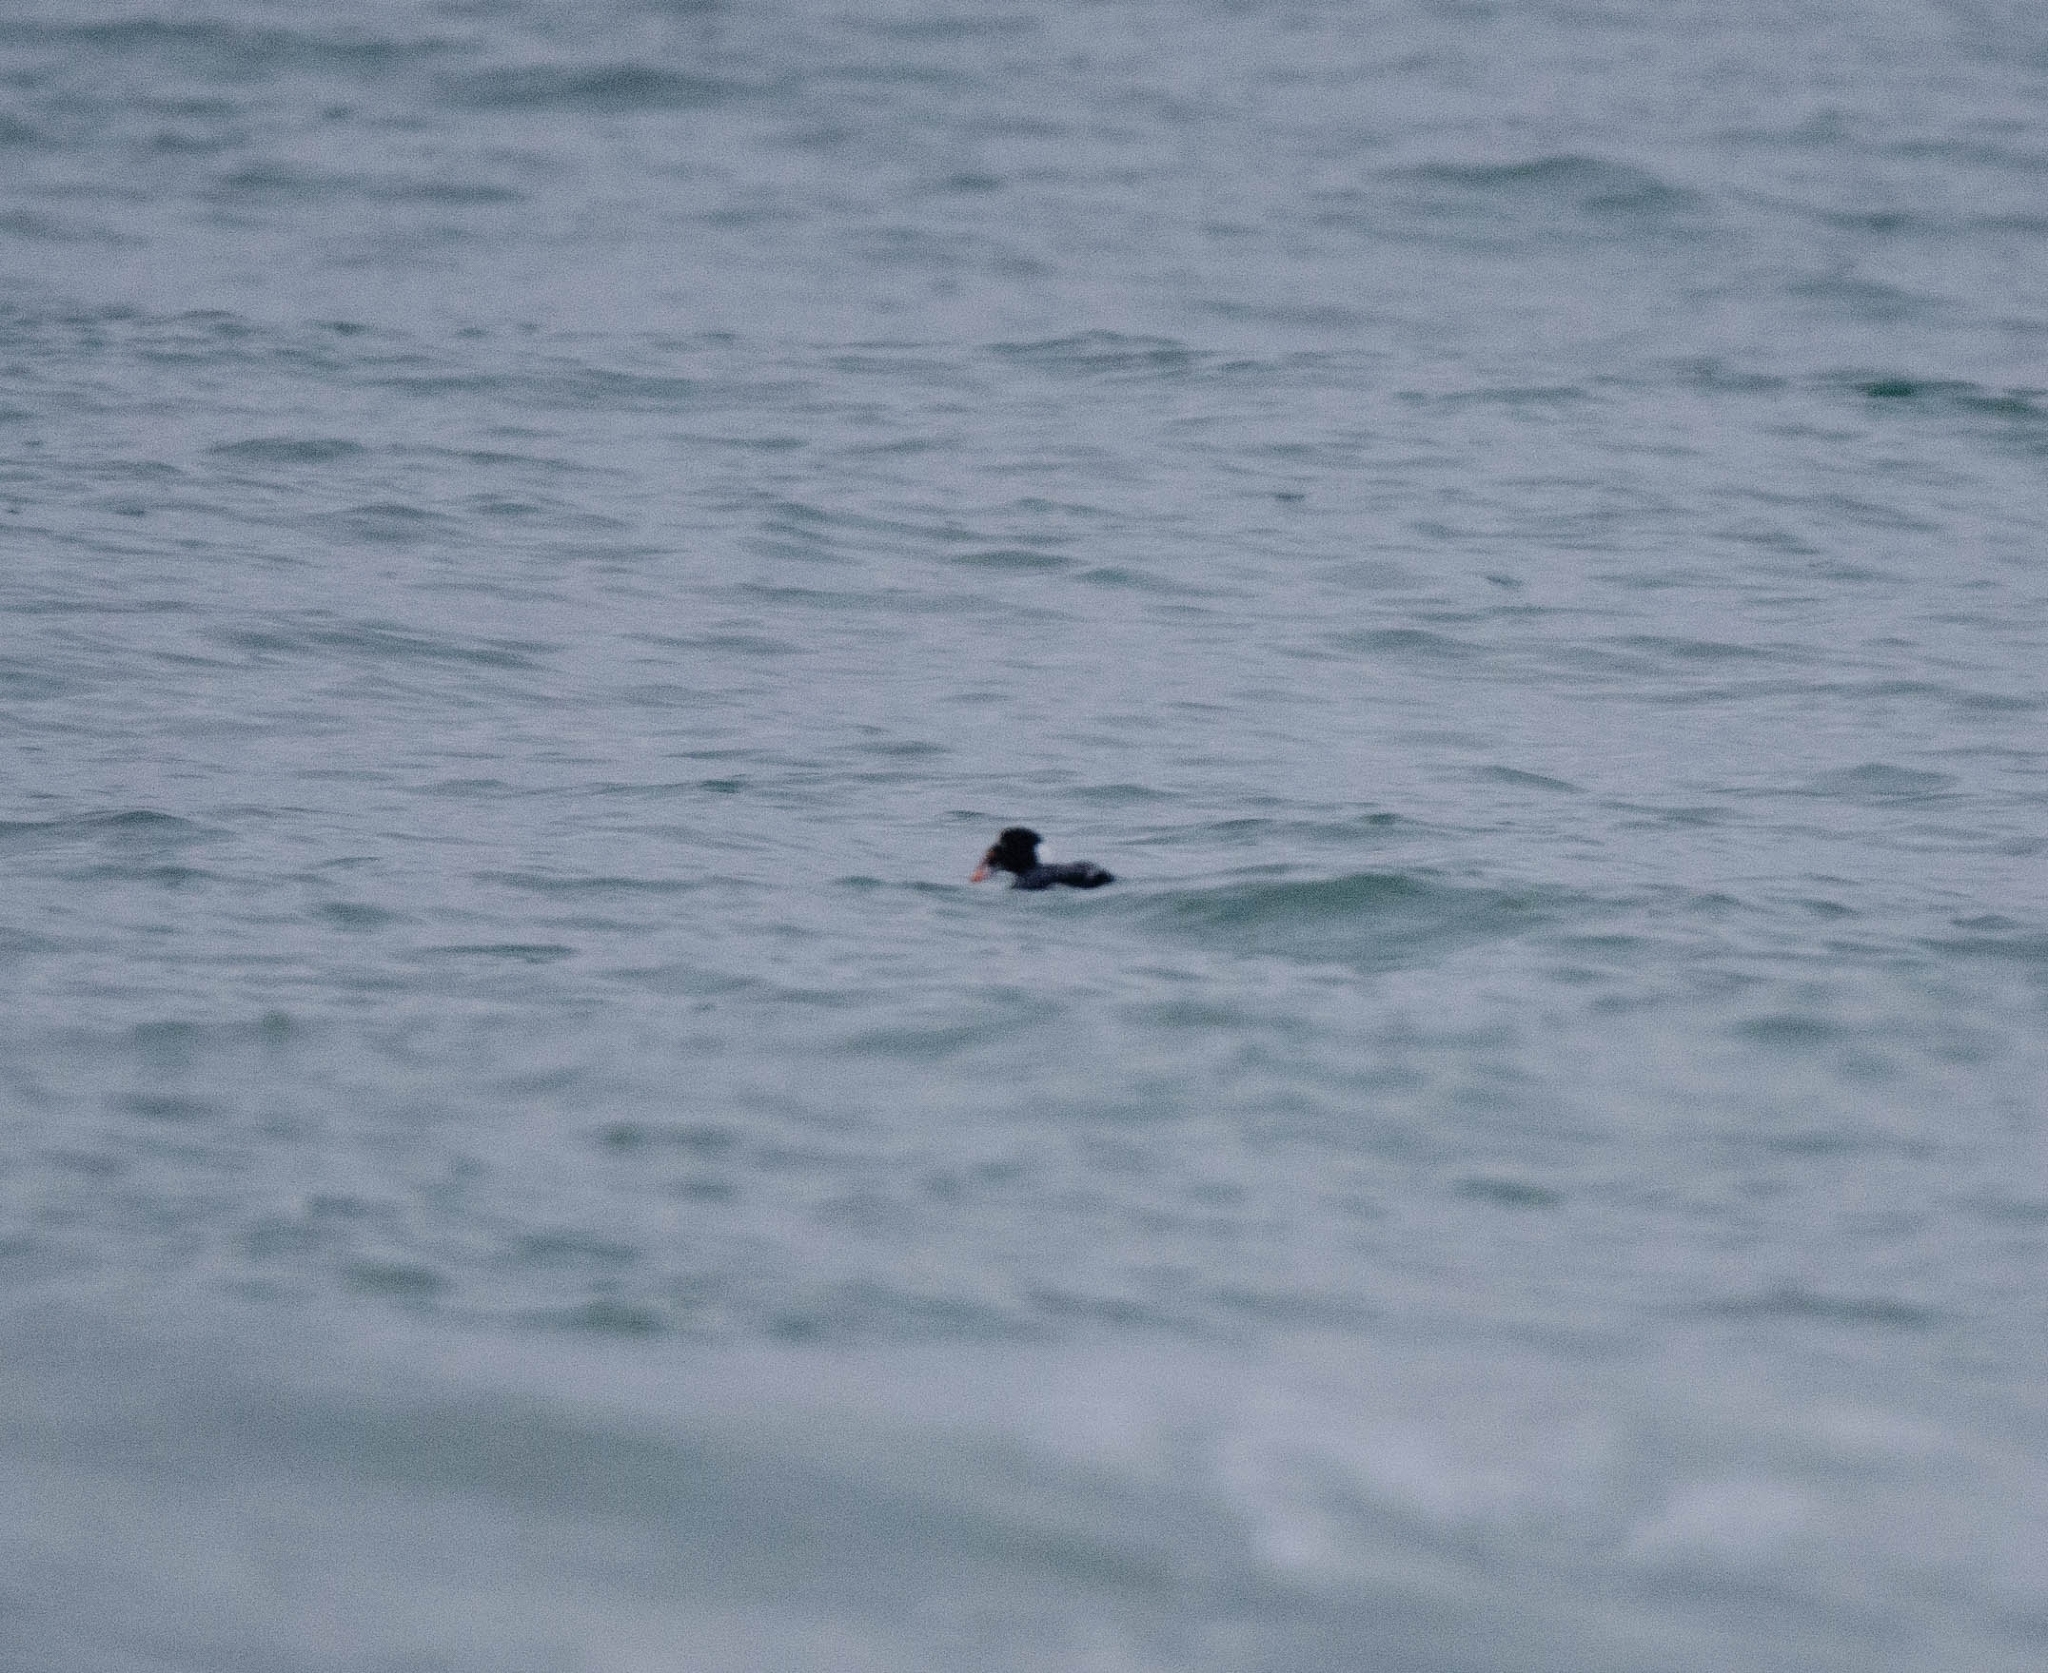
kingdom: Animalia
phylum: Chordata
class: Aves
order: Anseriformes
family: Anatidae
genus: Melanitta
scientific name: Melanitta perspicillata
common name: Surf scoter
